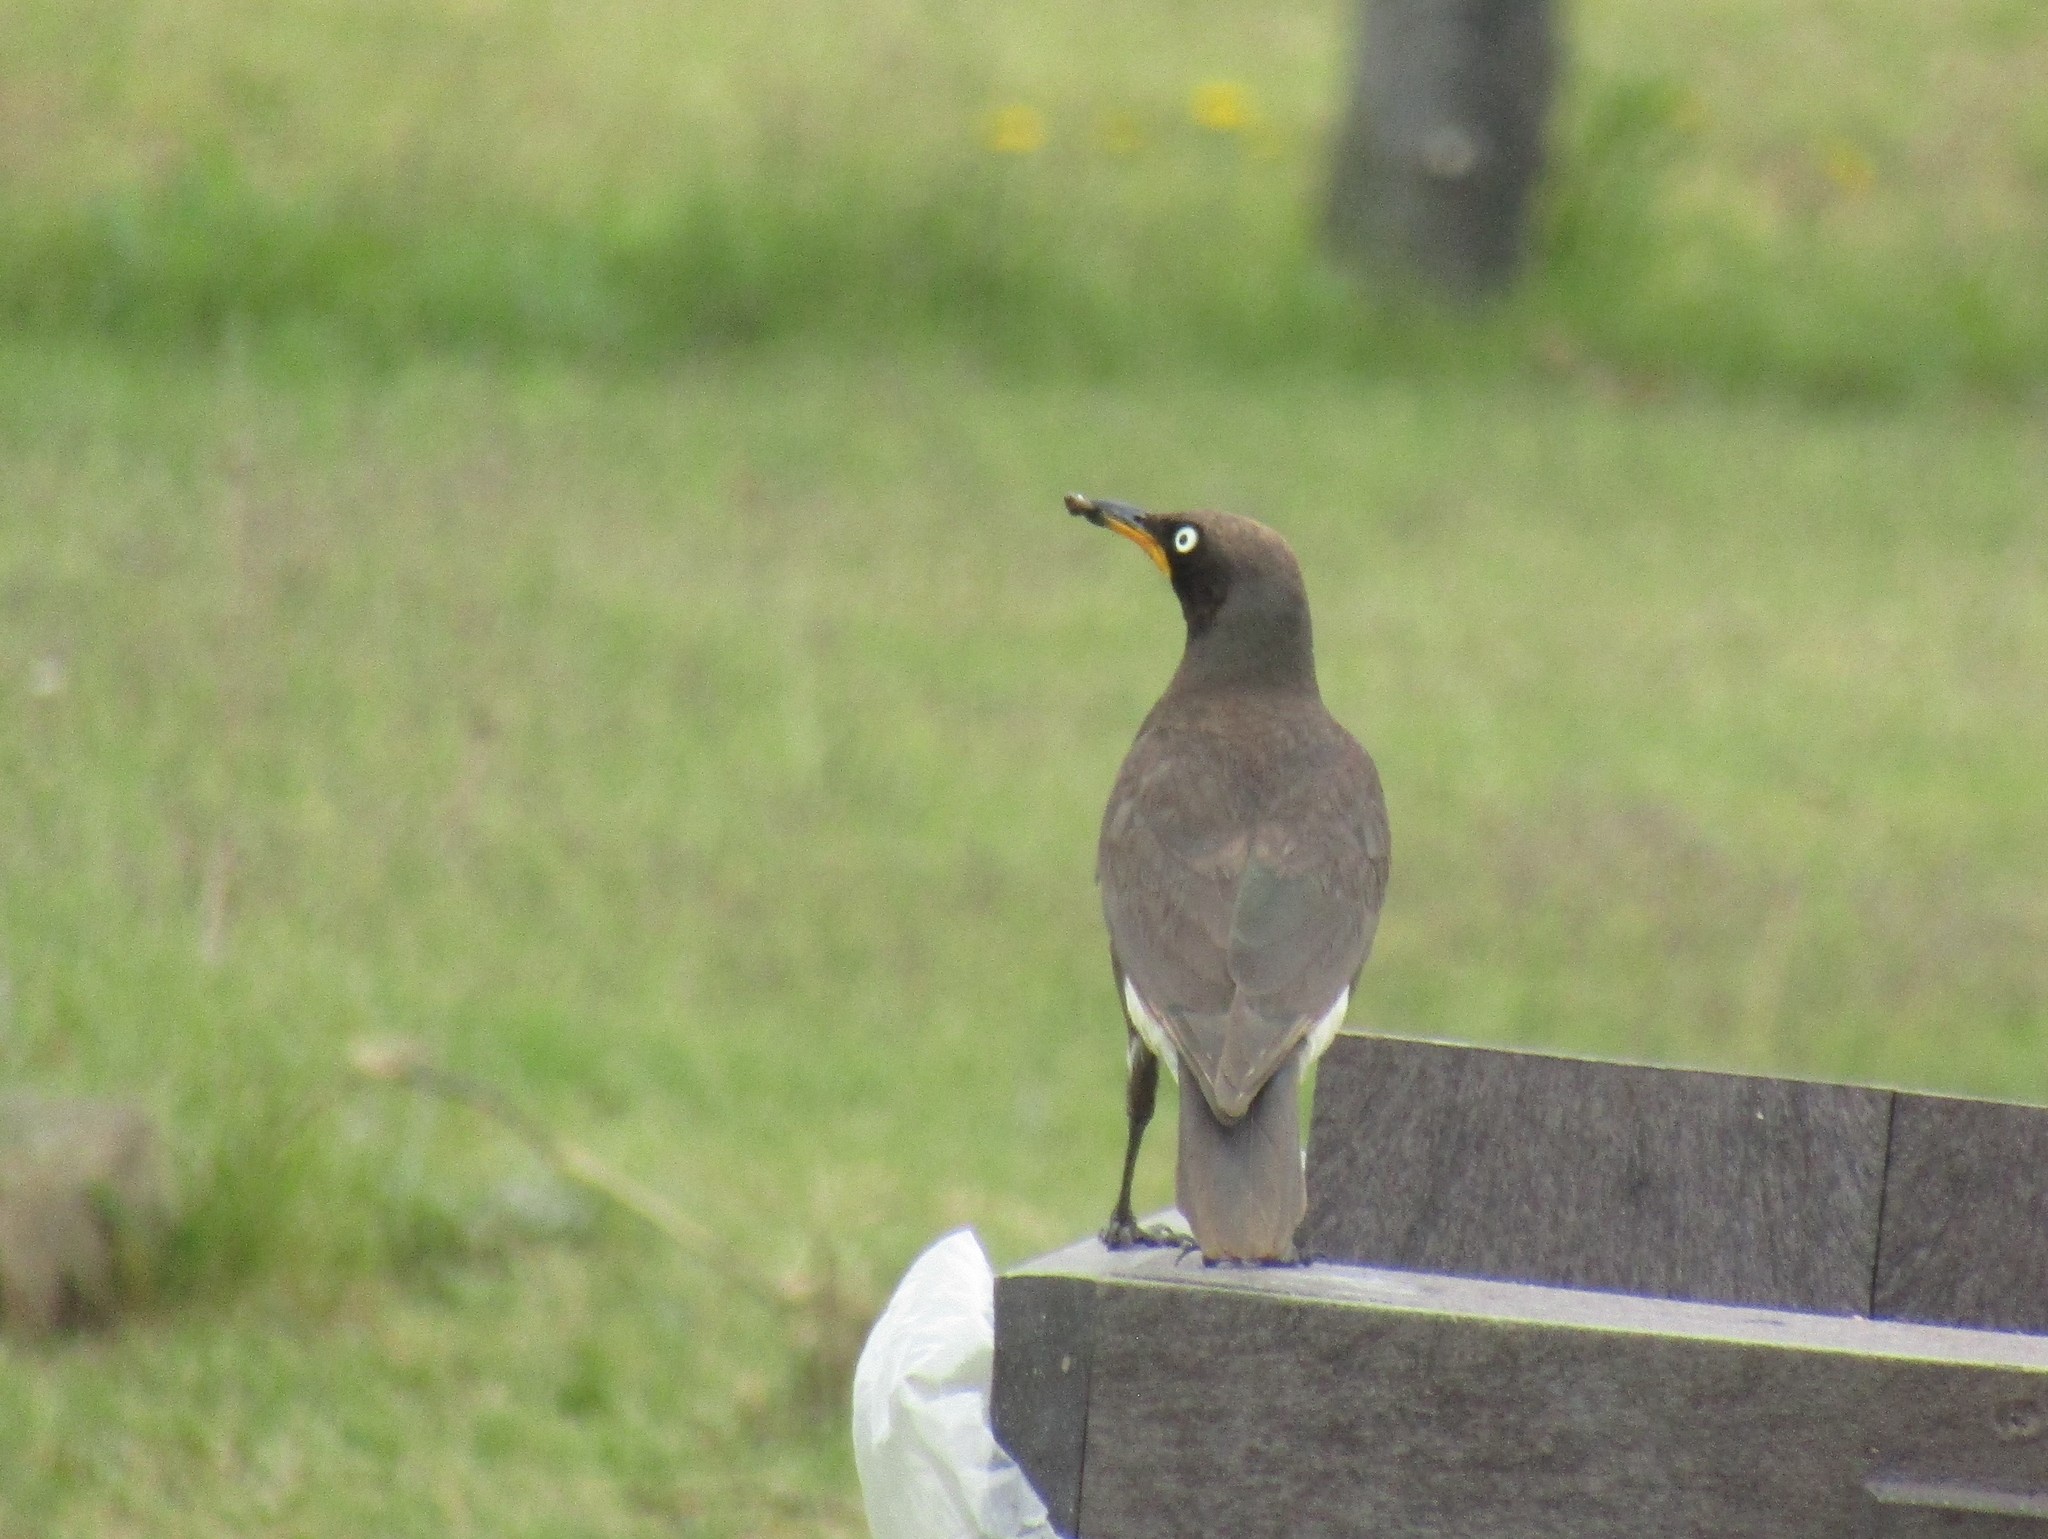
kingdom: Animalia
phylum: Chordata
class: Aves
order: Passeriformes
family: Sturnidae
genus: Lamprotornis
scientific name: Lamprotornis bicolor
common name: Pied starling
